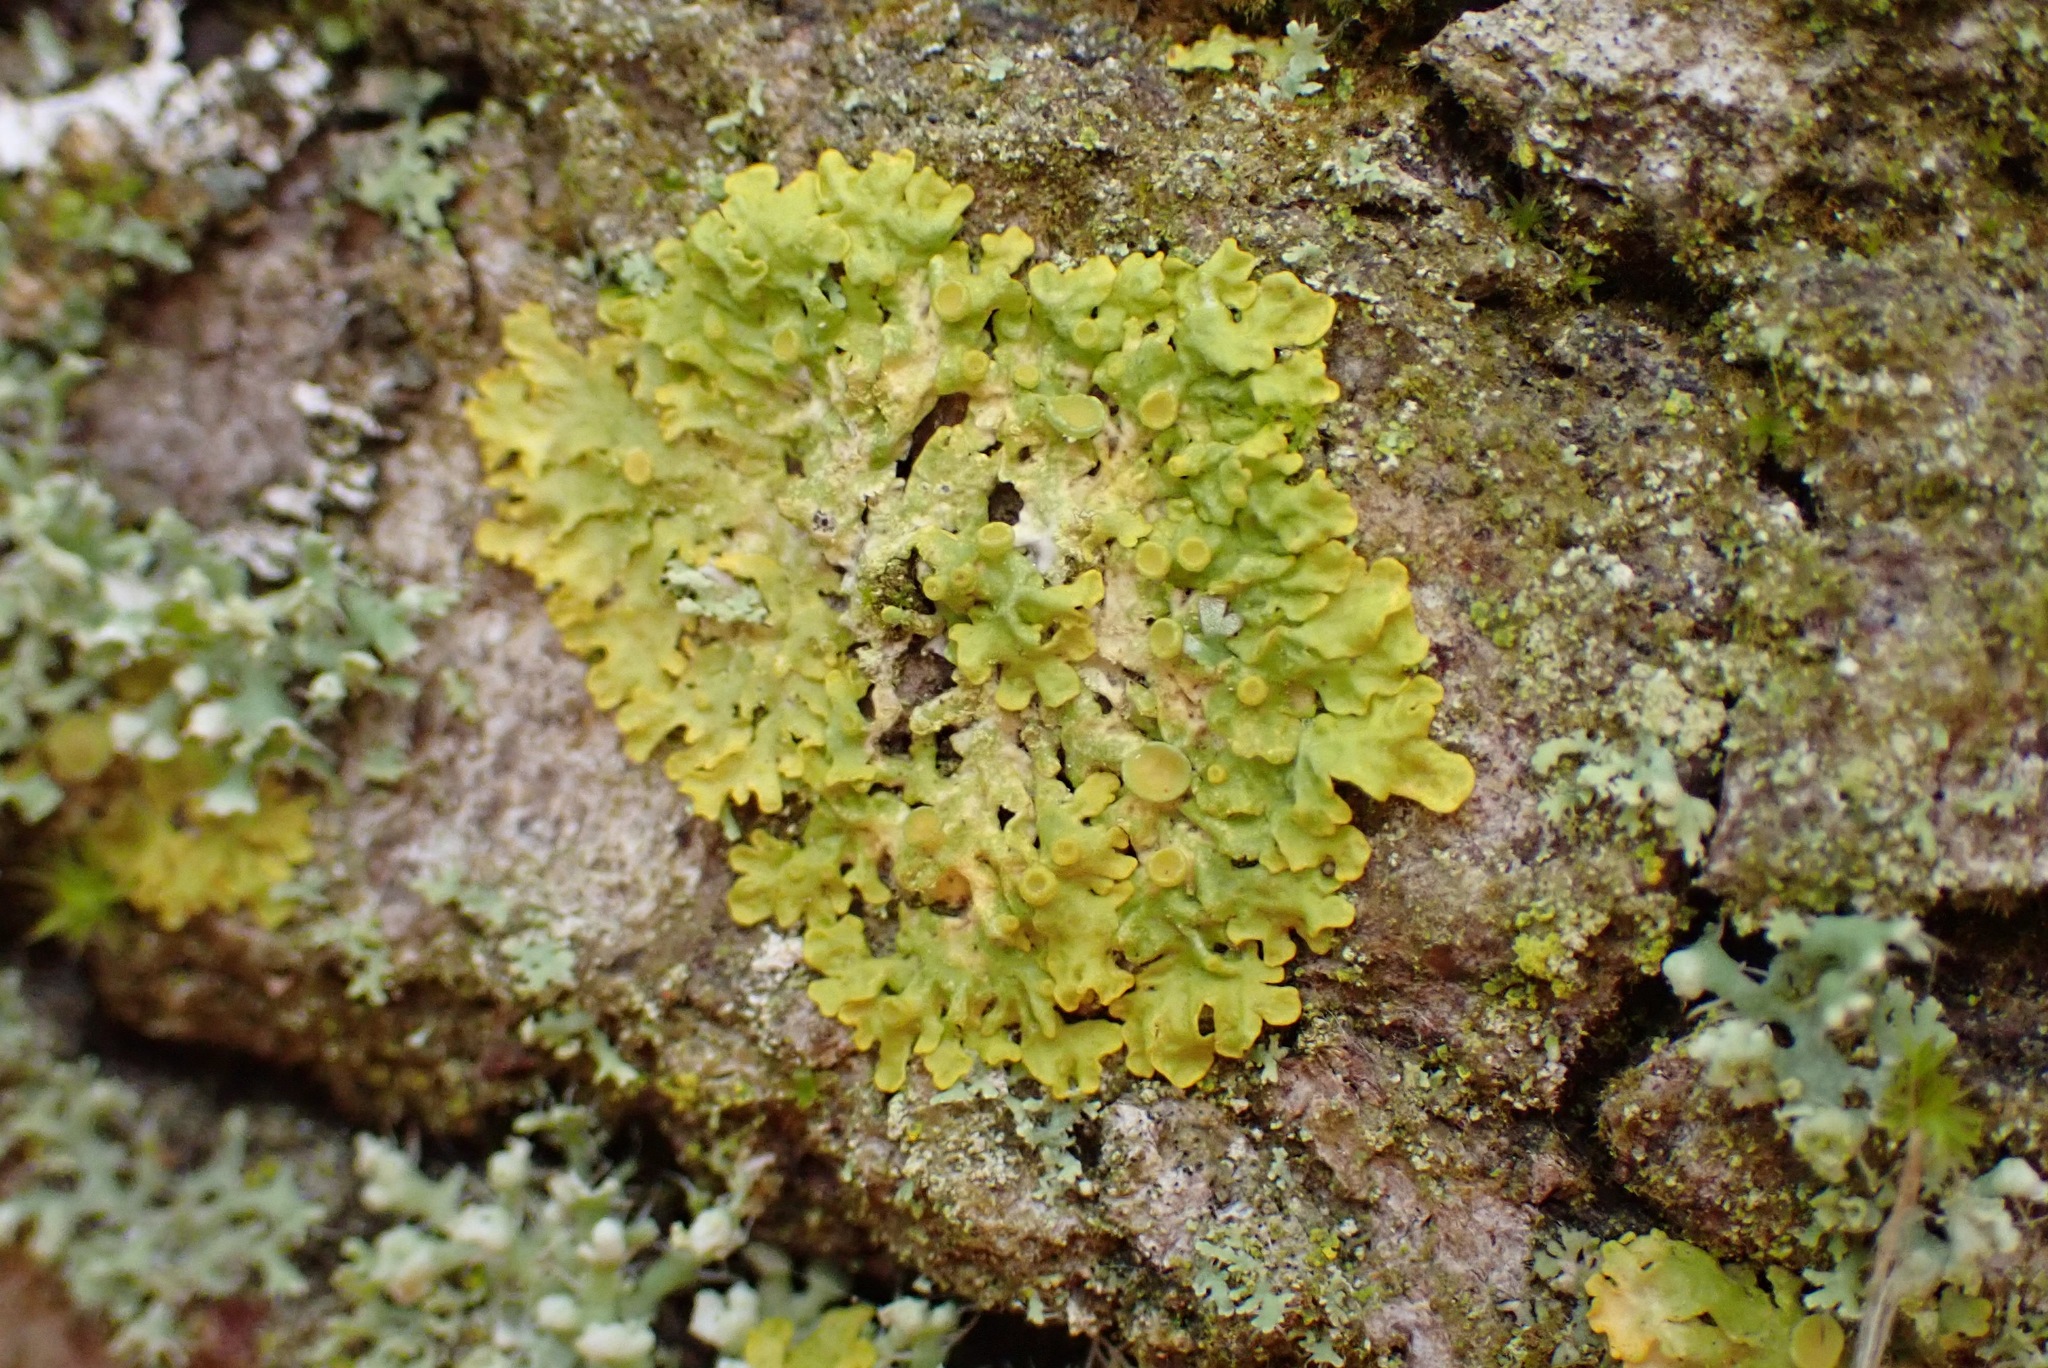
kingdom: Fungi
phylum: Ascomycota
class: Lecanoromycetes
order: Teloschistales
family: Teloschistaceae
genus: Xanthoria
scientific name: Xanthoria parietina
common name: Common orange lichen
